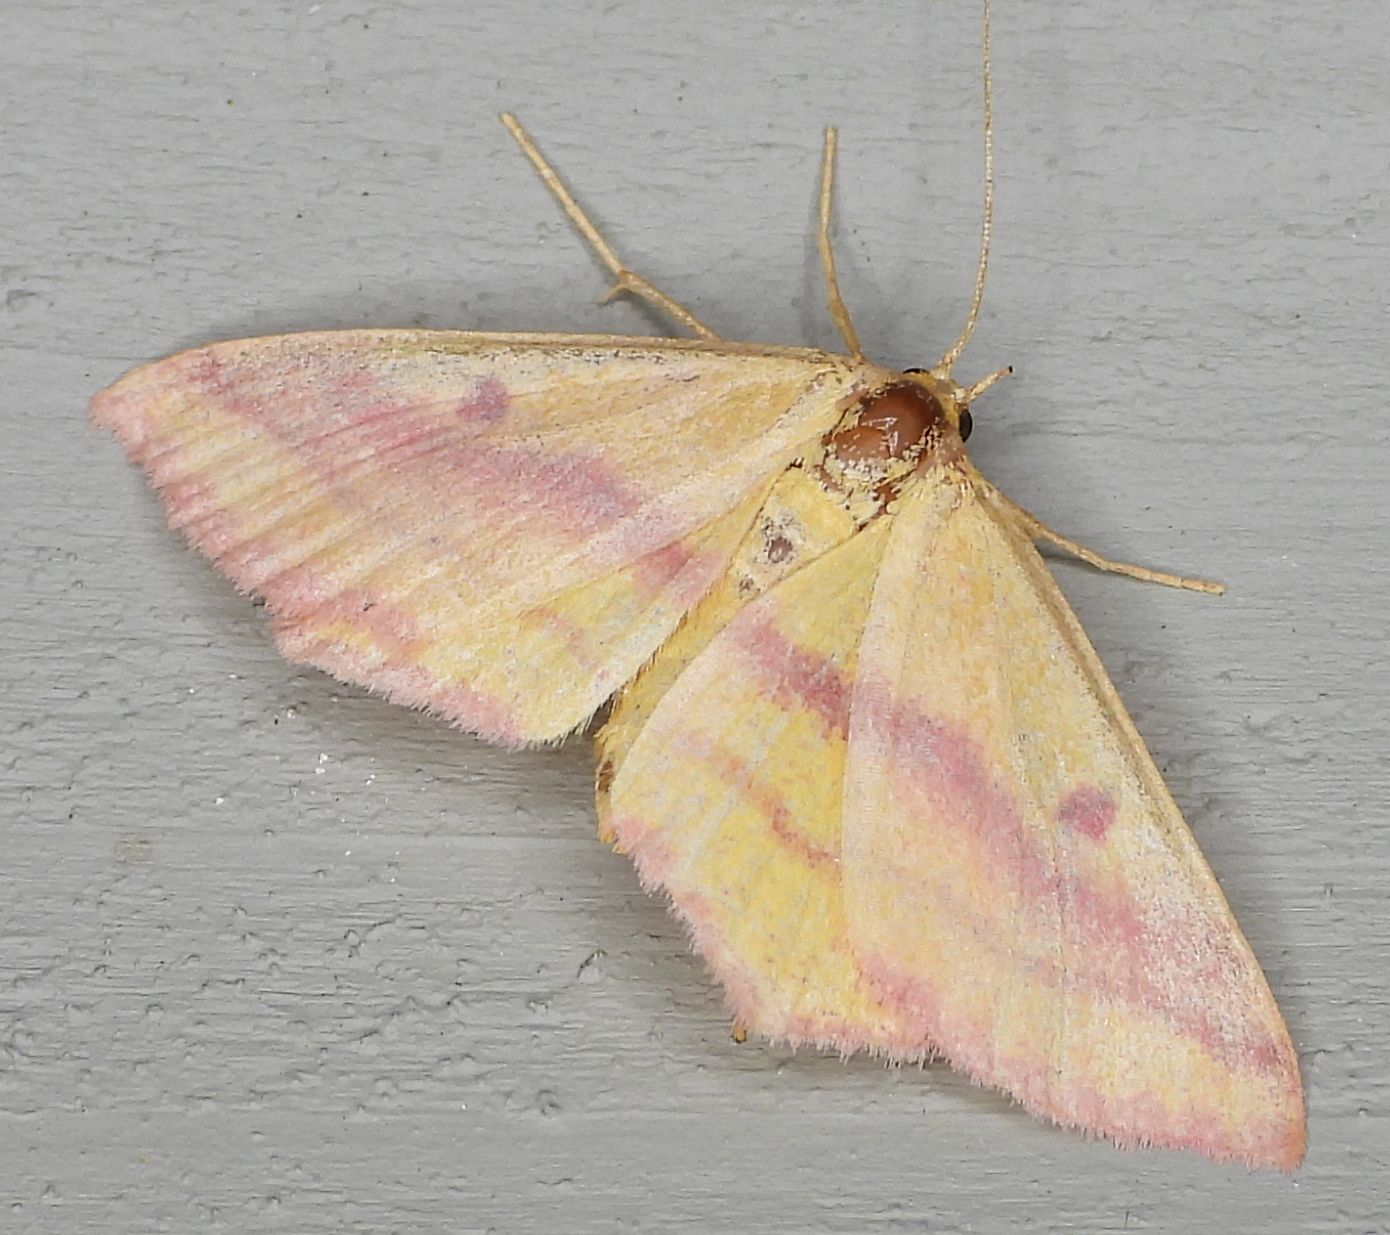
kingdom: Animalia
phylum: Arthropoda
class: Insecta
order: Lepidoptera
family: Geometridae
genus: Haematopis
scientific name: Haematopis grataria
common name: Chickweed geometer
